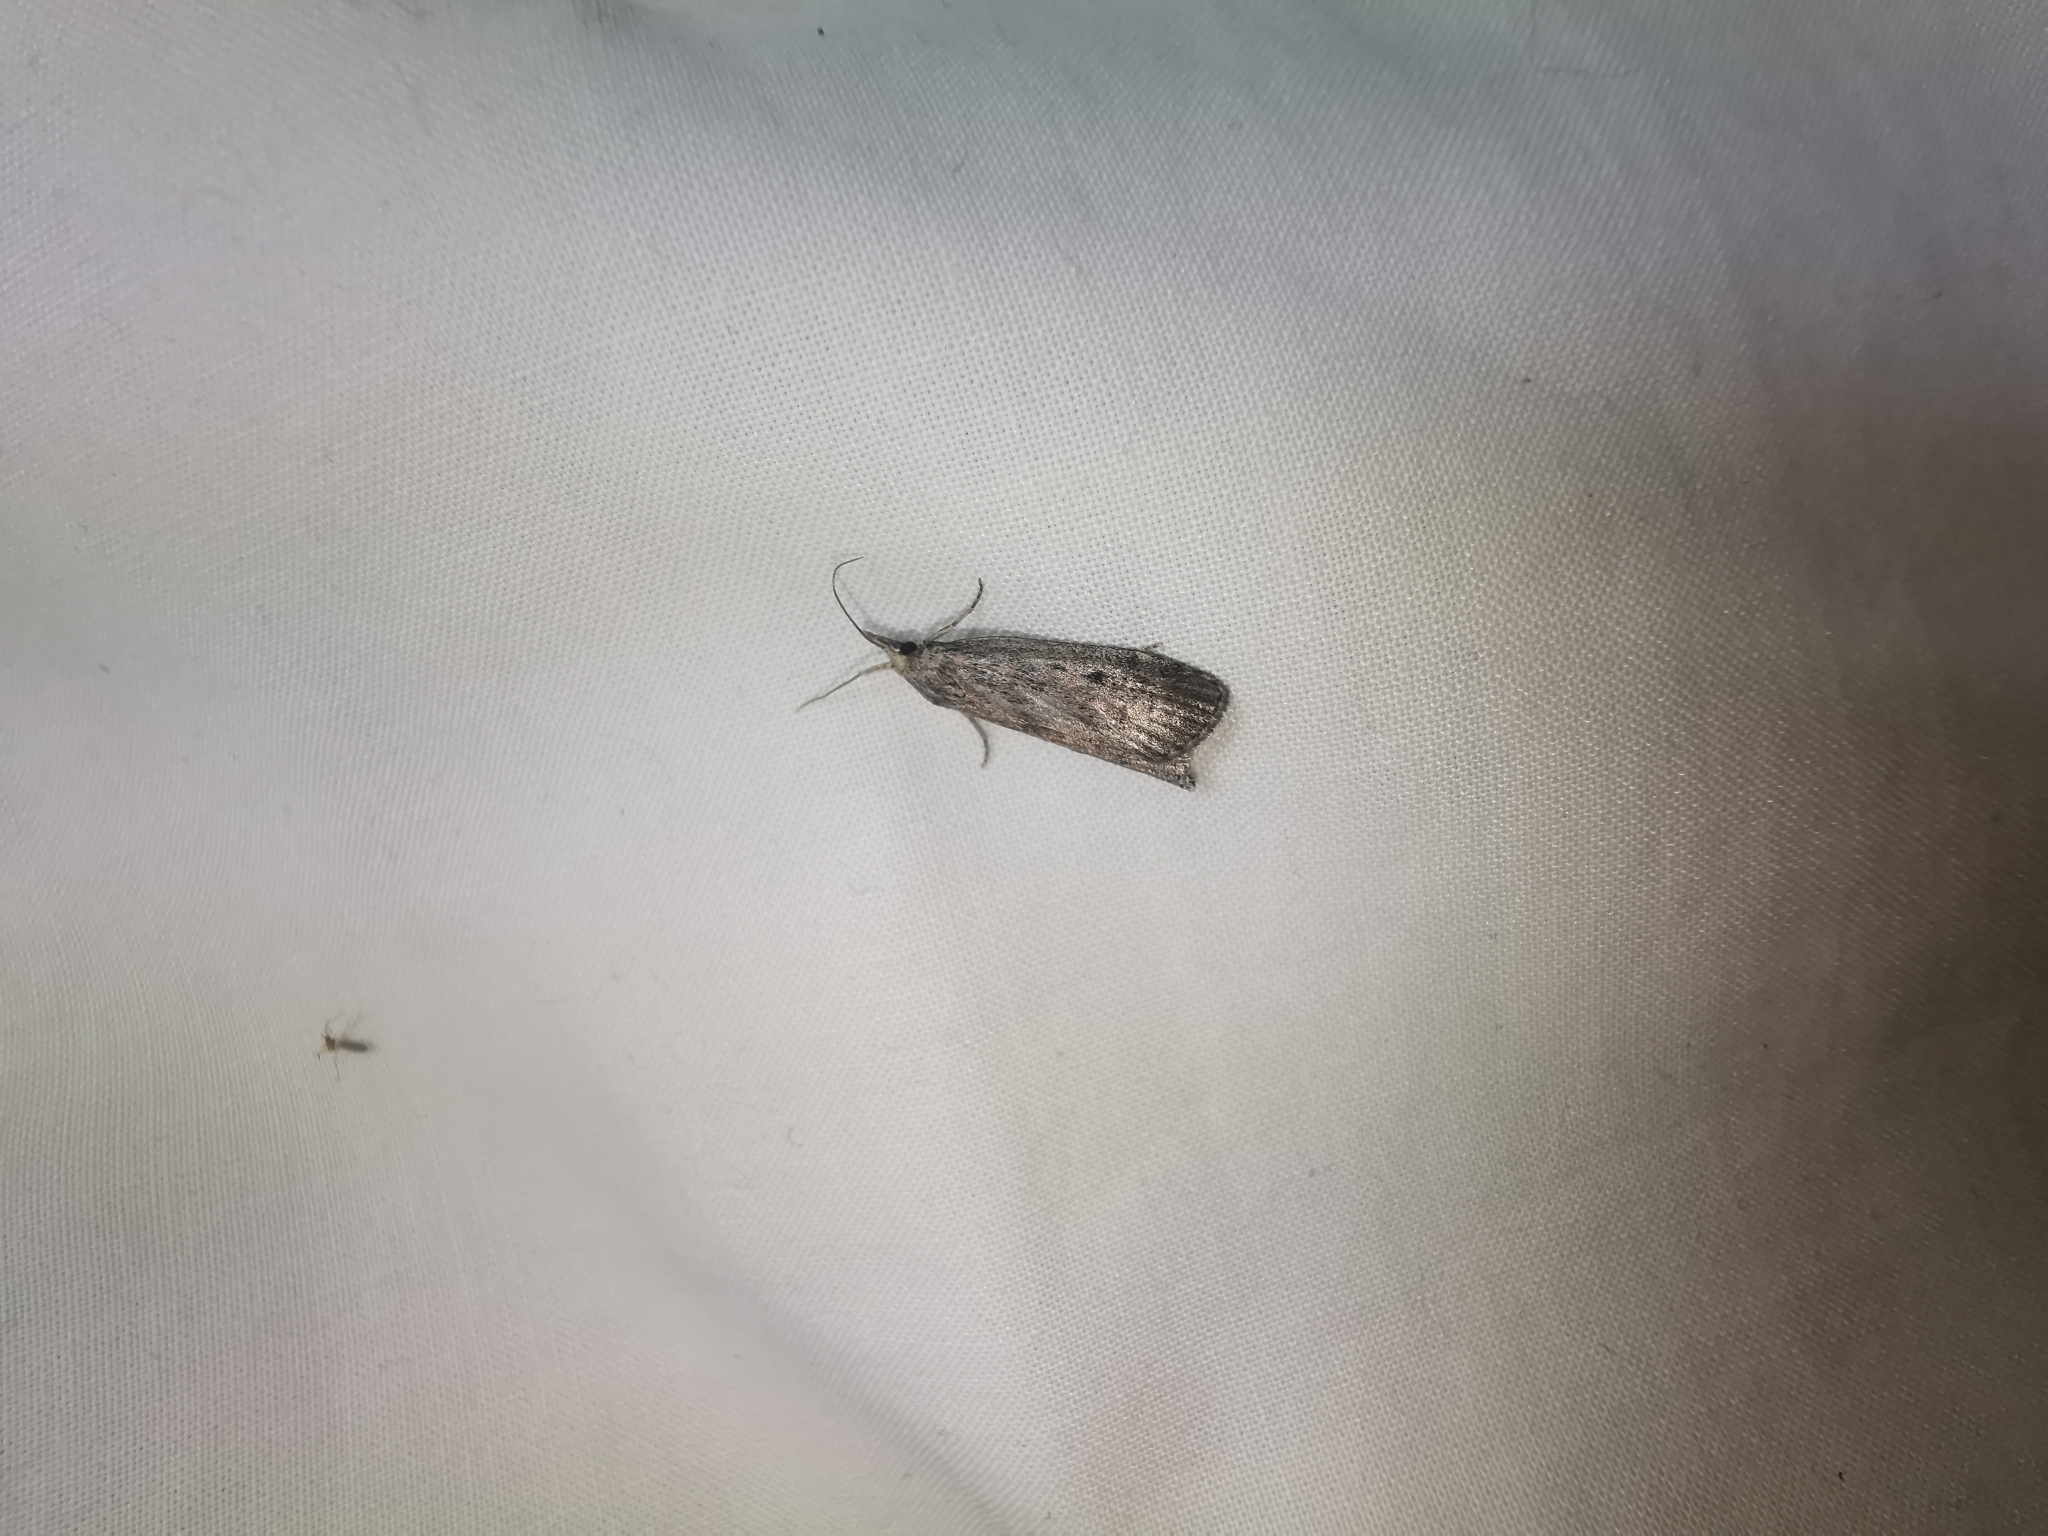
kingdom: Animalia
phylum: Arthropoda
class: Insecta
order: Lepidoptera
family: Pyralidae
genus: Aphomia
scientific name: Aphomia sociella
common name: Bee moth
